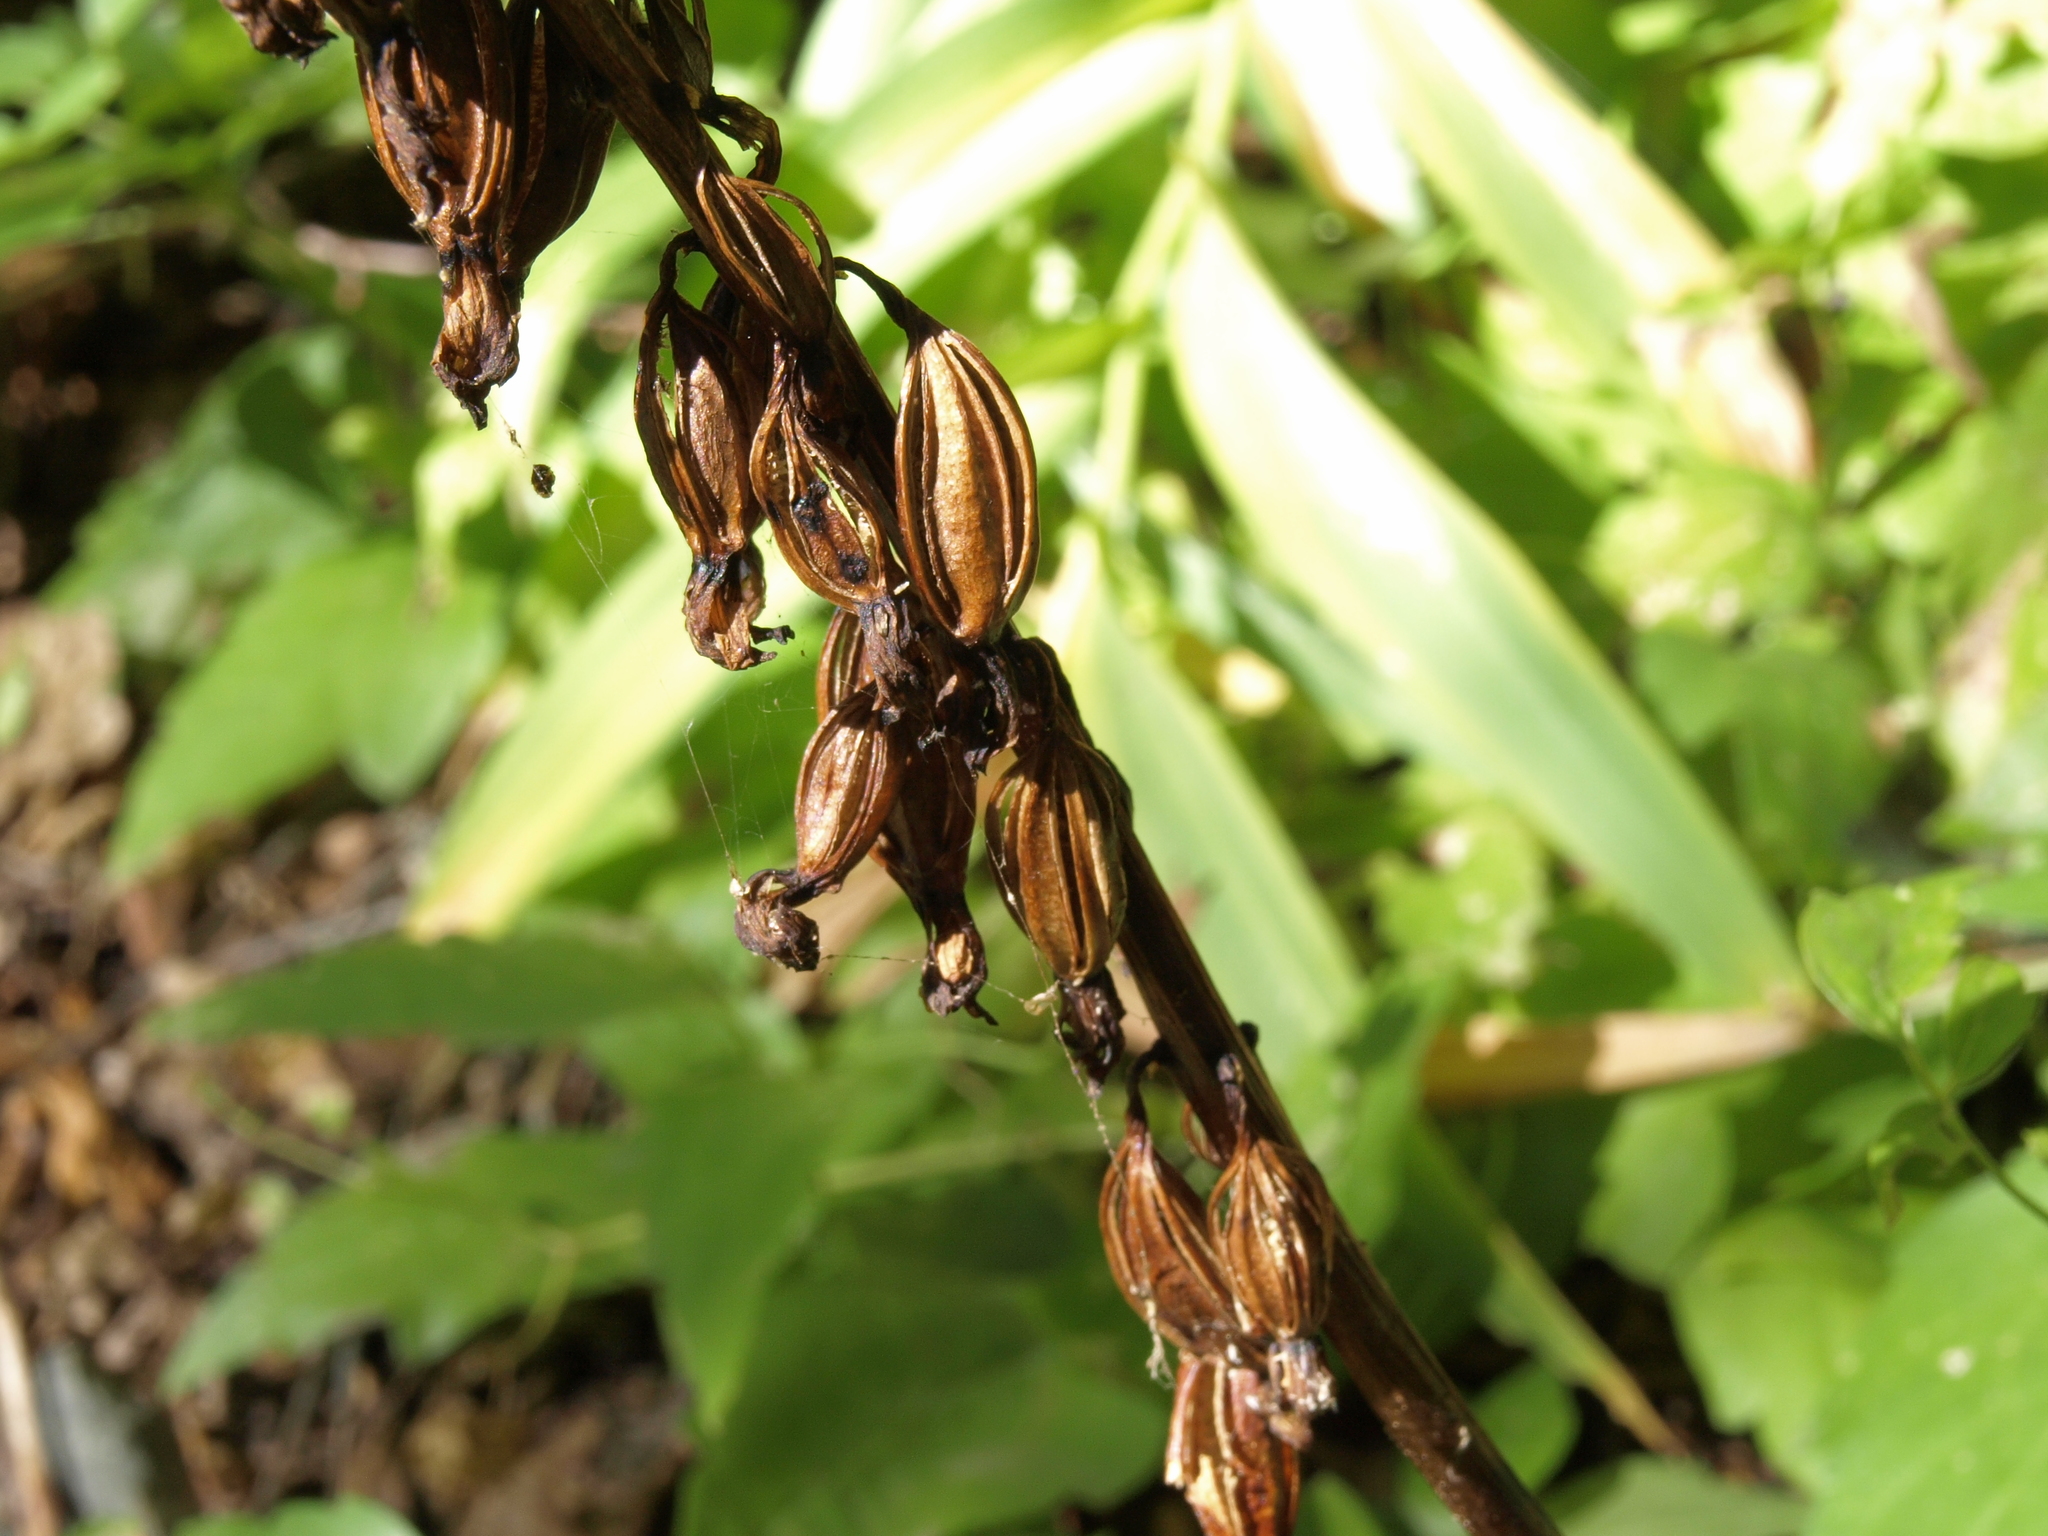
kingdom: Plantae
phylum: Tracheophyta
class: Liliopsida
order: Asparagales
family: Orchidaceae
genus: Corallorhiza
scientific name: Corallorhiza maculata
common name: Spotted coralroot
